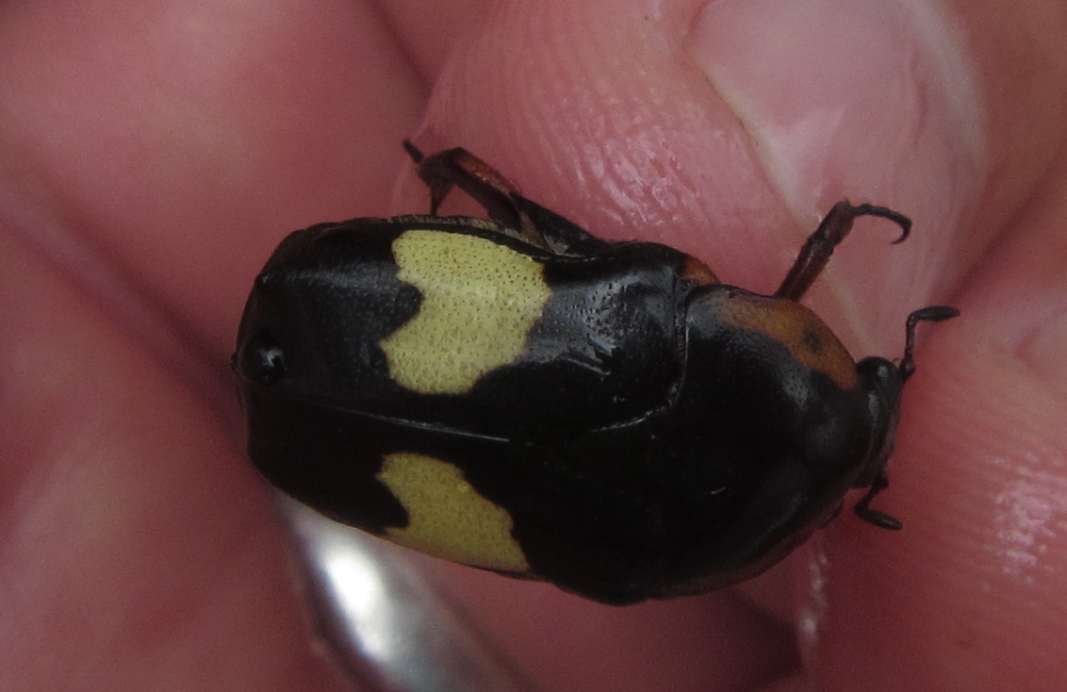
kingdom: Animalia
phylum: Arthropoda
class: Insecta
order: Coleoptera
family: Scarabaeidae
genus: Pedinorrhina
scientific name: Pedinorrhina
